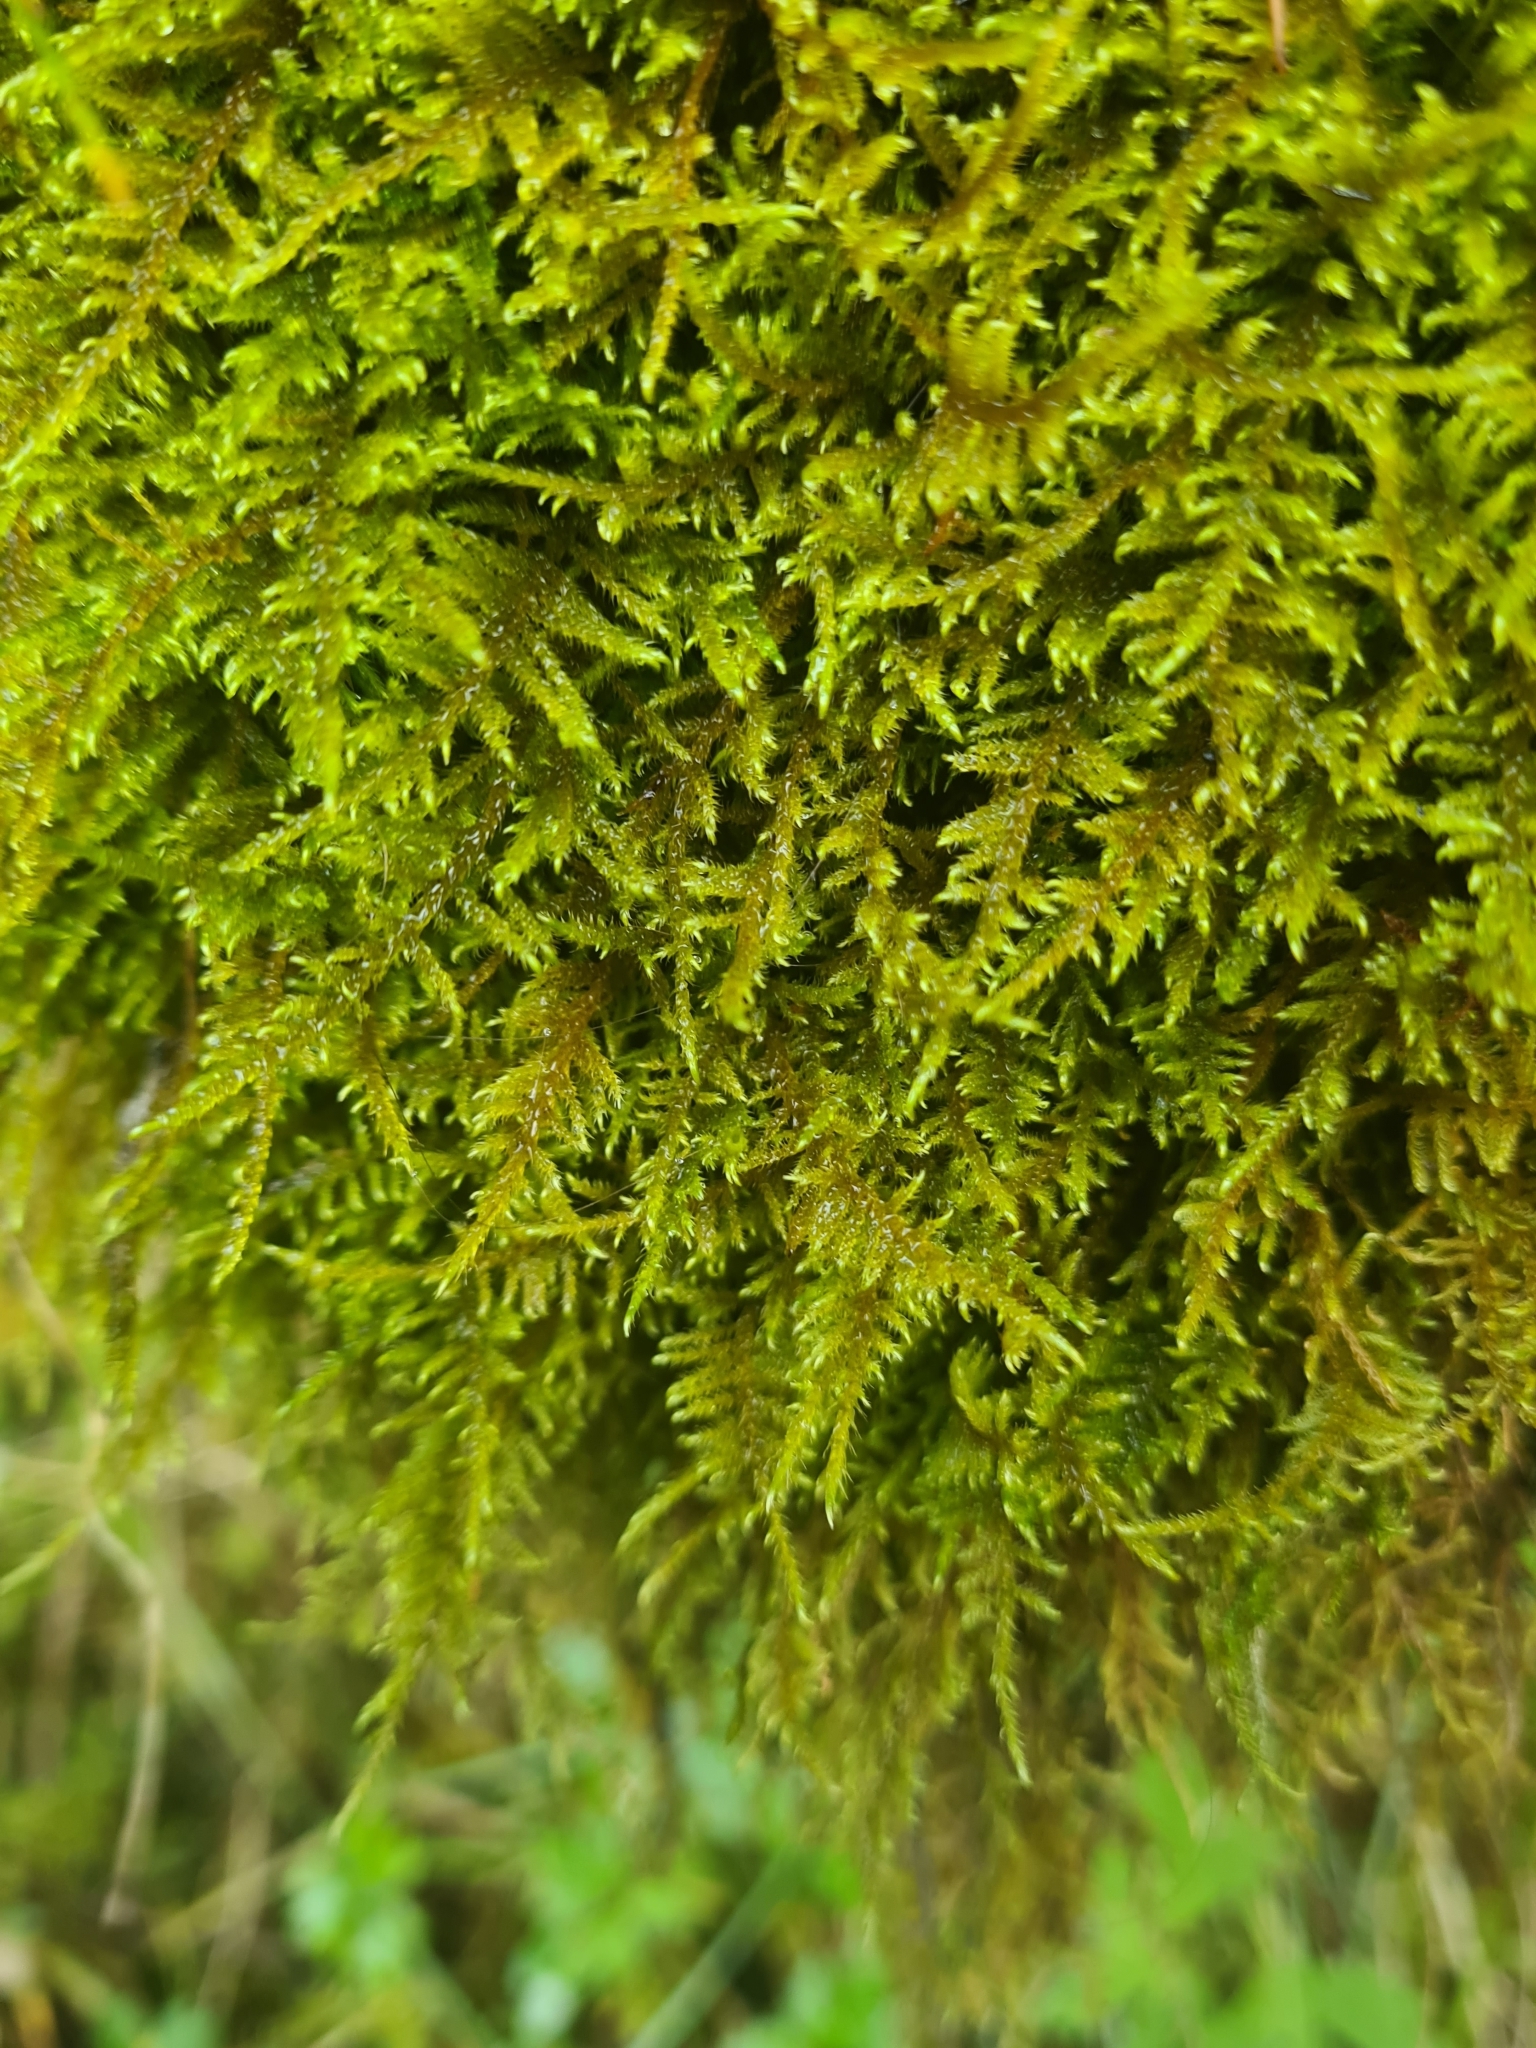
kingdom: Plantae
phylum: Bryophyta
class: Bryopsida
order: Hypnales
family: Amblystegiaceae
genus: Cratoneuron
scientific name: Cratoneuron filicinum
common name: Fern-leaved hook moss
